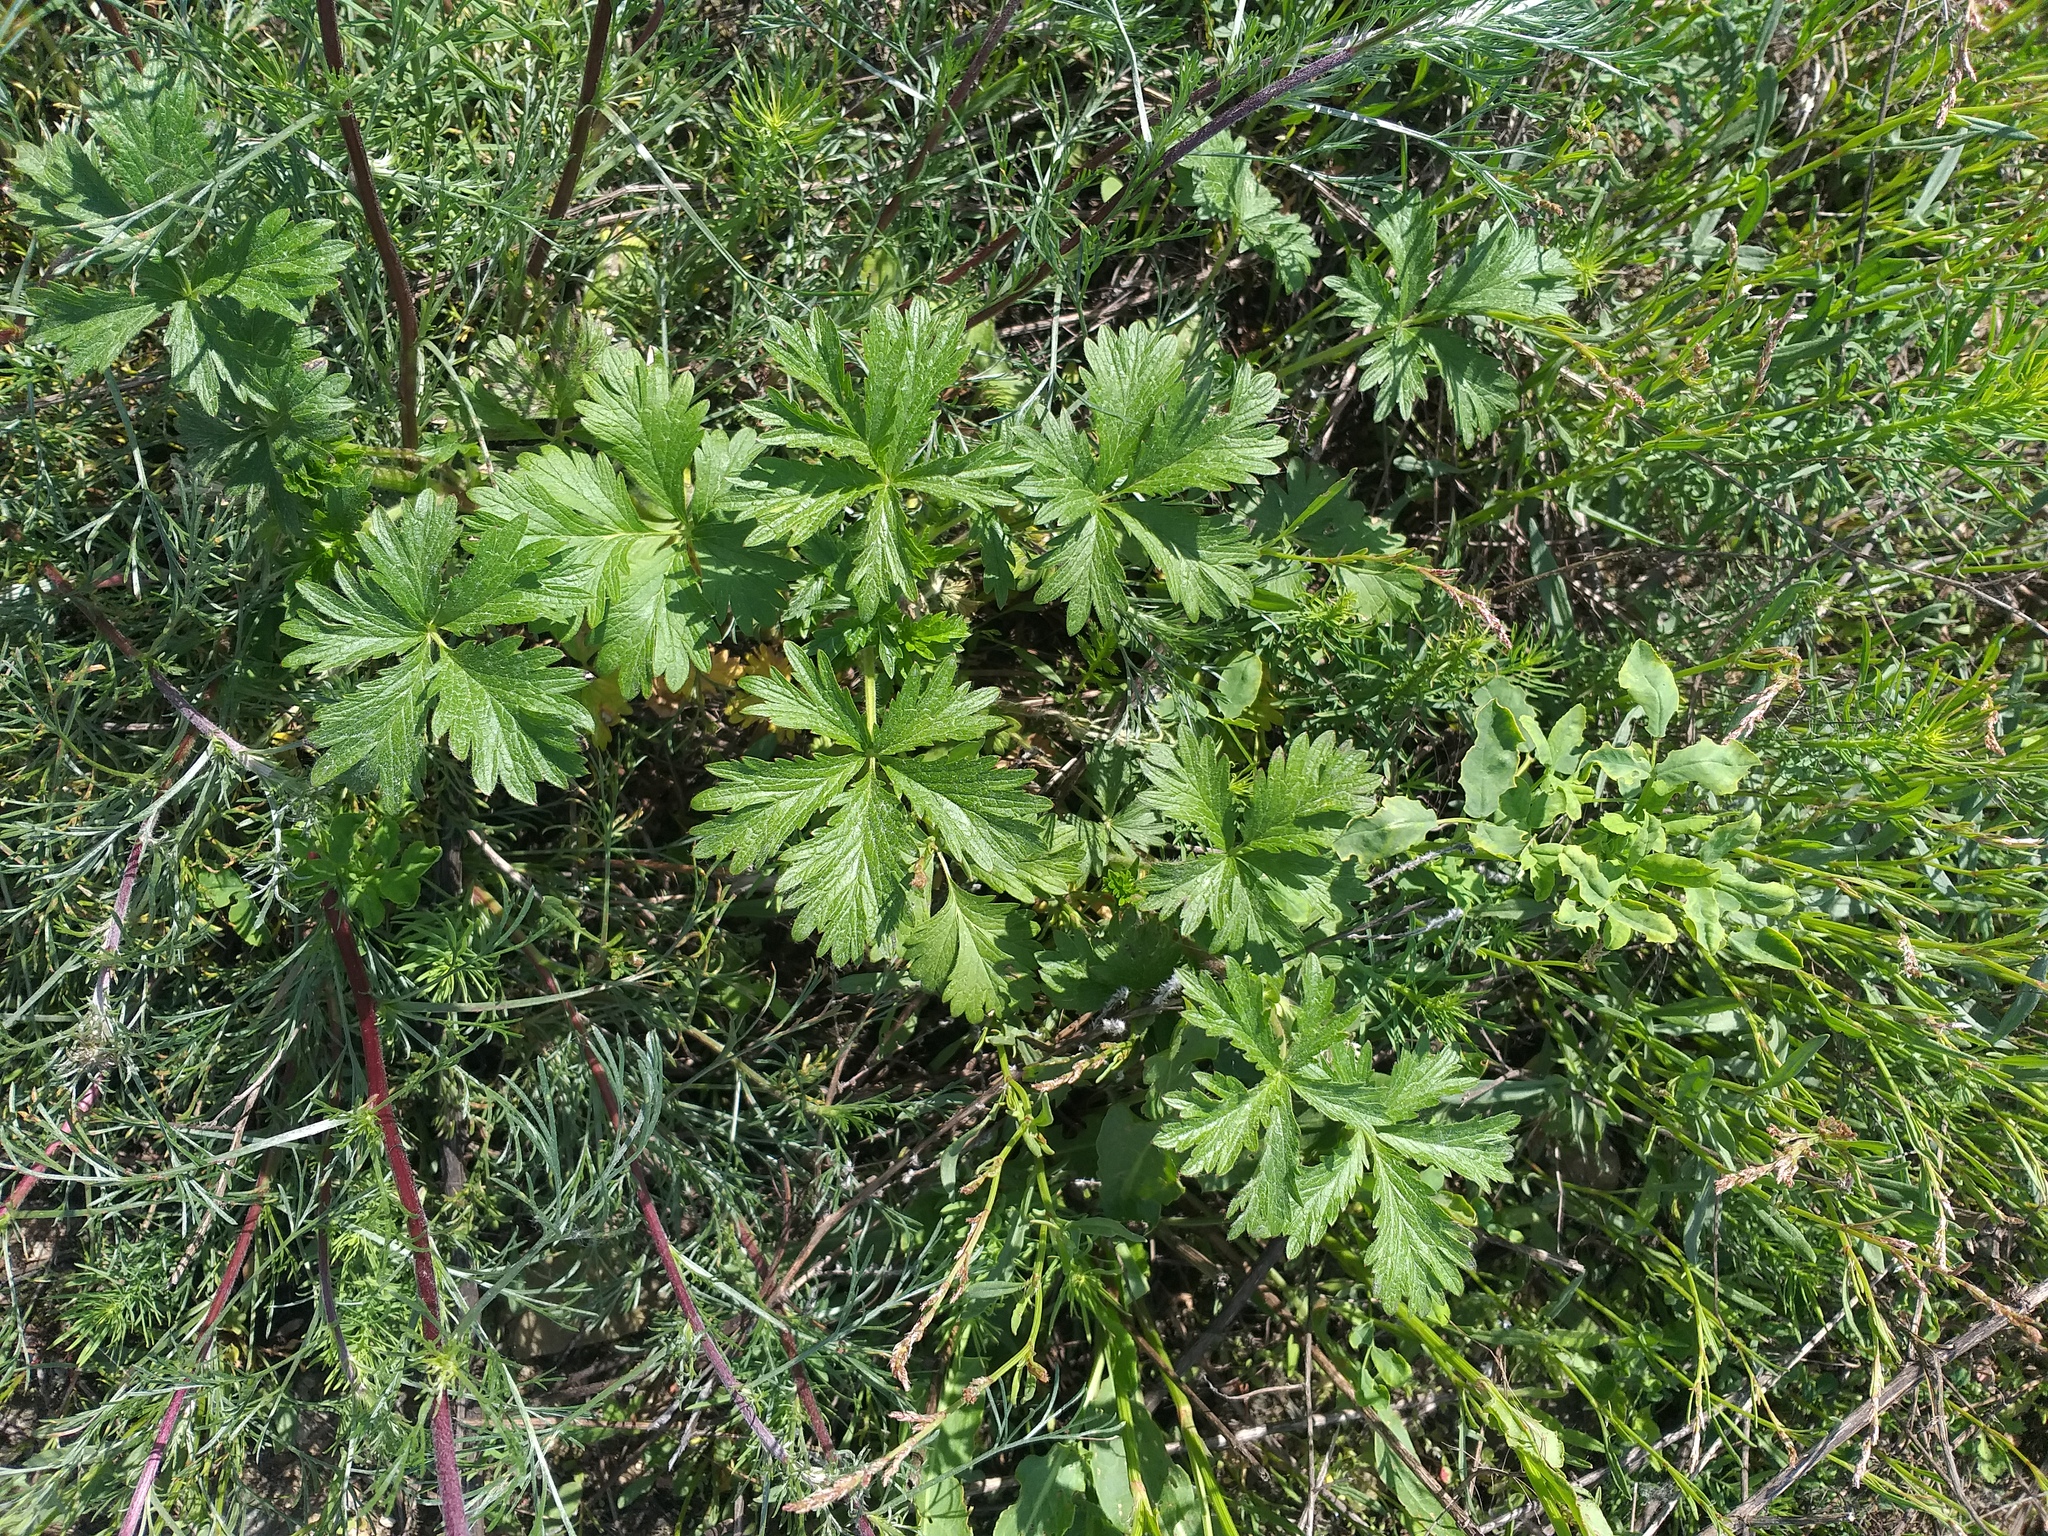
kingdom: Plantae
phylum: Tracheophyta
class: Magnoliopsida
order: Rosales
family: Rosaceae
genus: Potentilla
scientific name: Potentilla intermedia
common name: Downy cinquefoil
